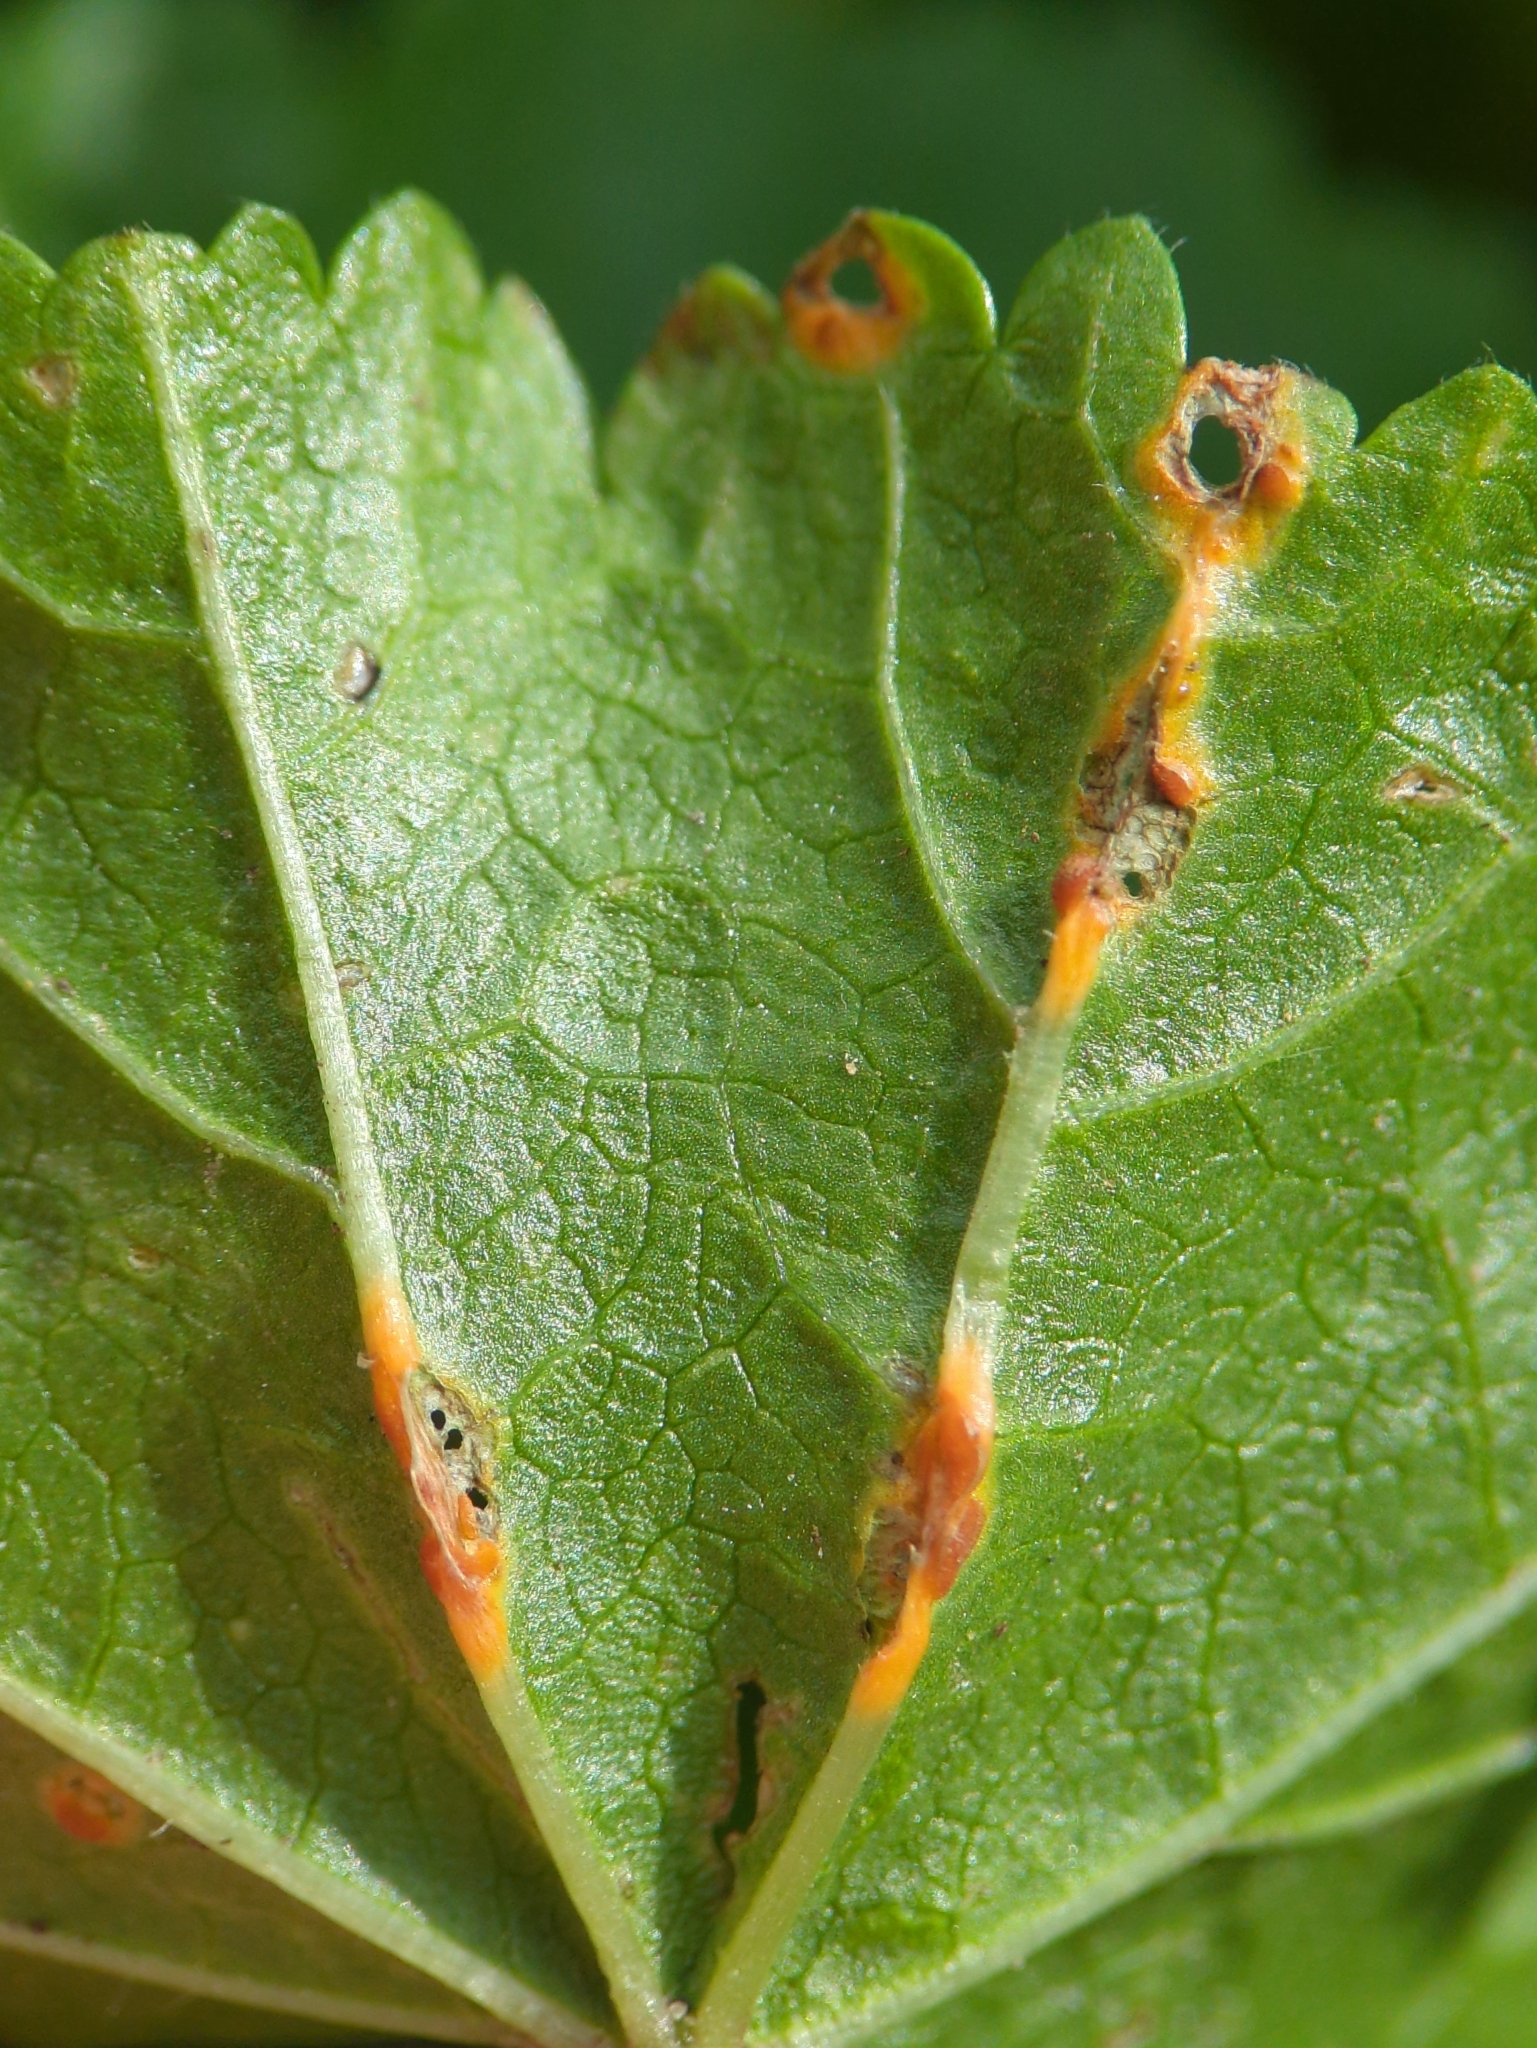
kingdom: Fungi
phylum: Basidiomycota
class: Pucciniomycetes
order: Pucciniales
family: Pucciniaceae
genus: Puccinia
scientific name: Puccinia malvacearum
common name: Hollyhock rust
